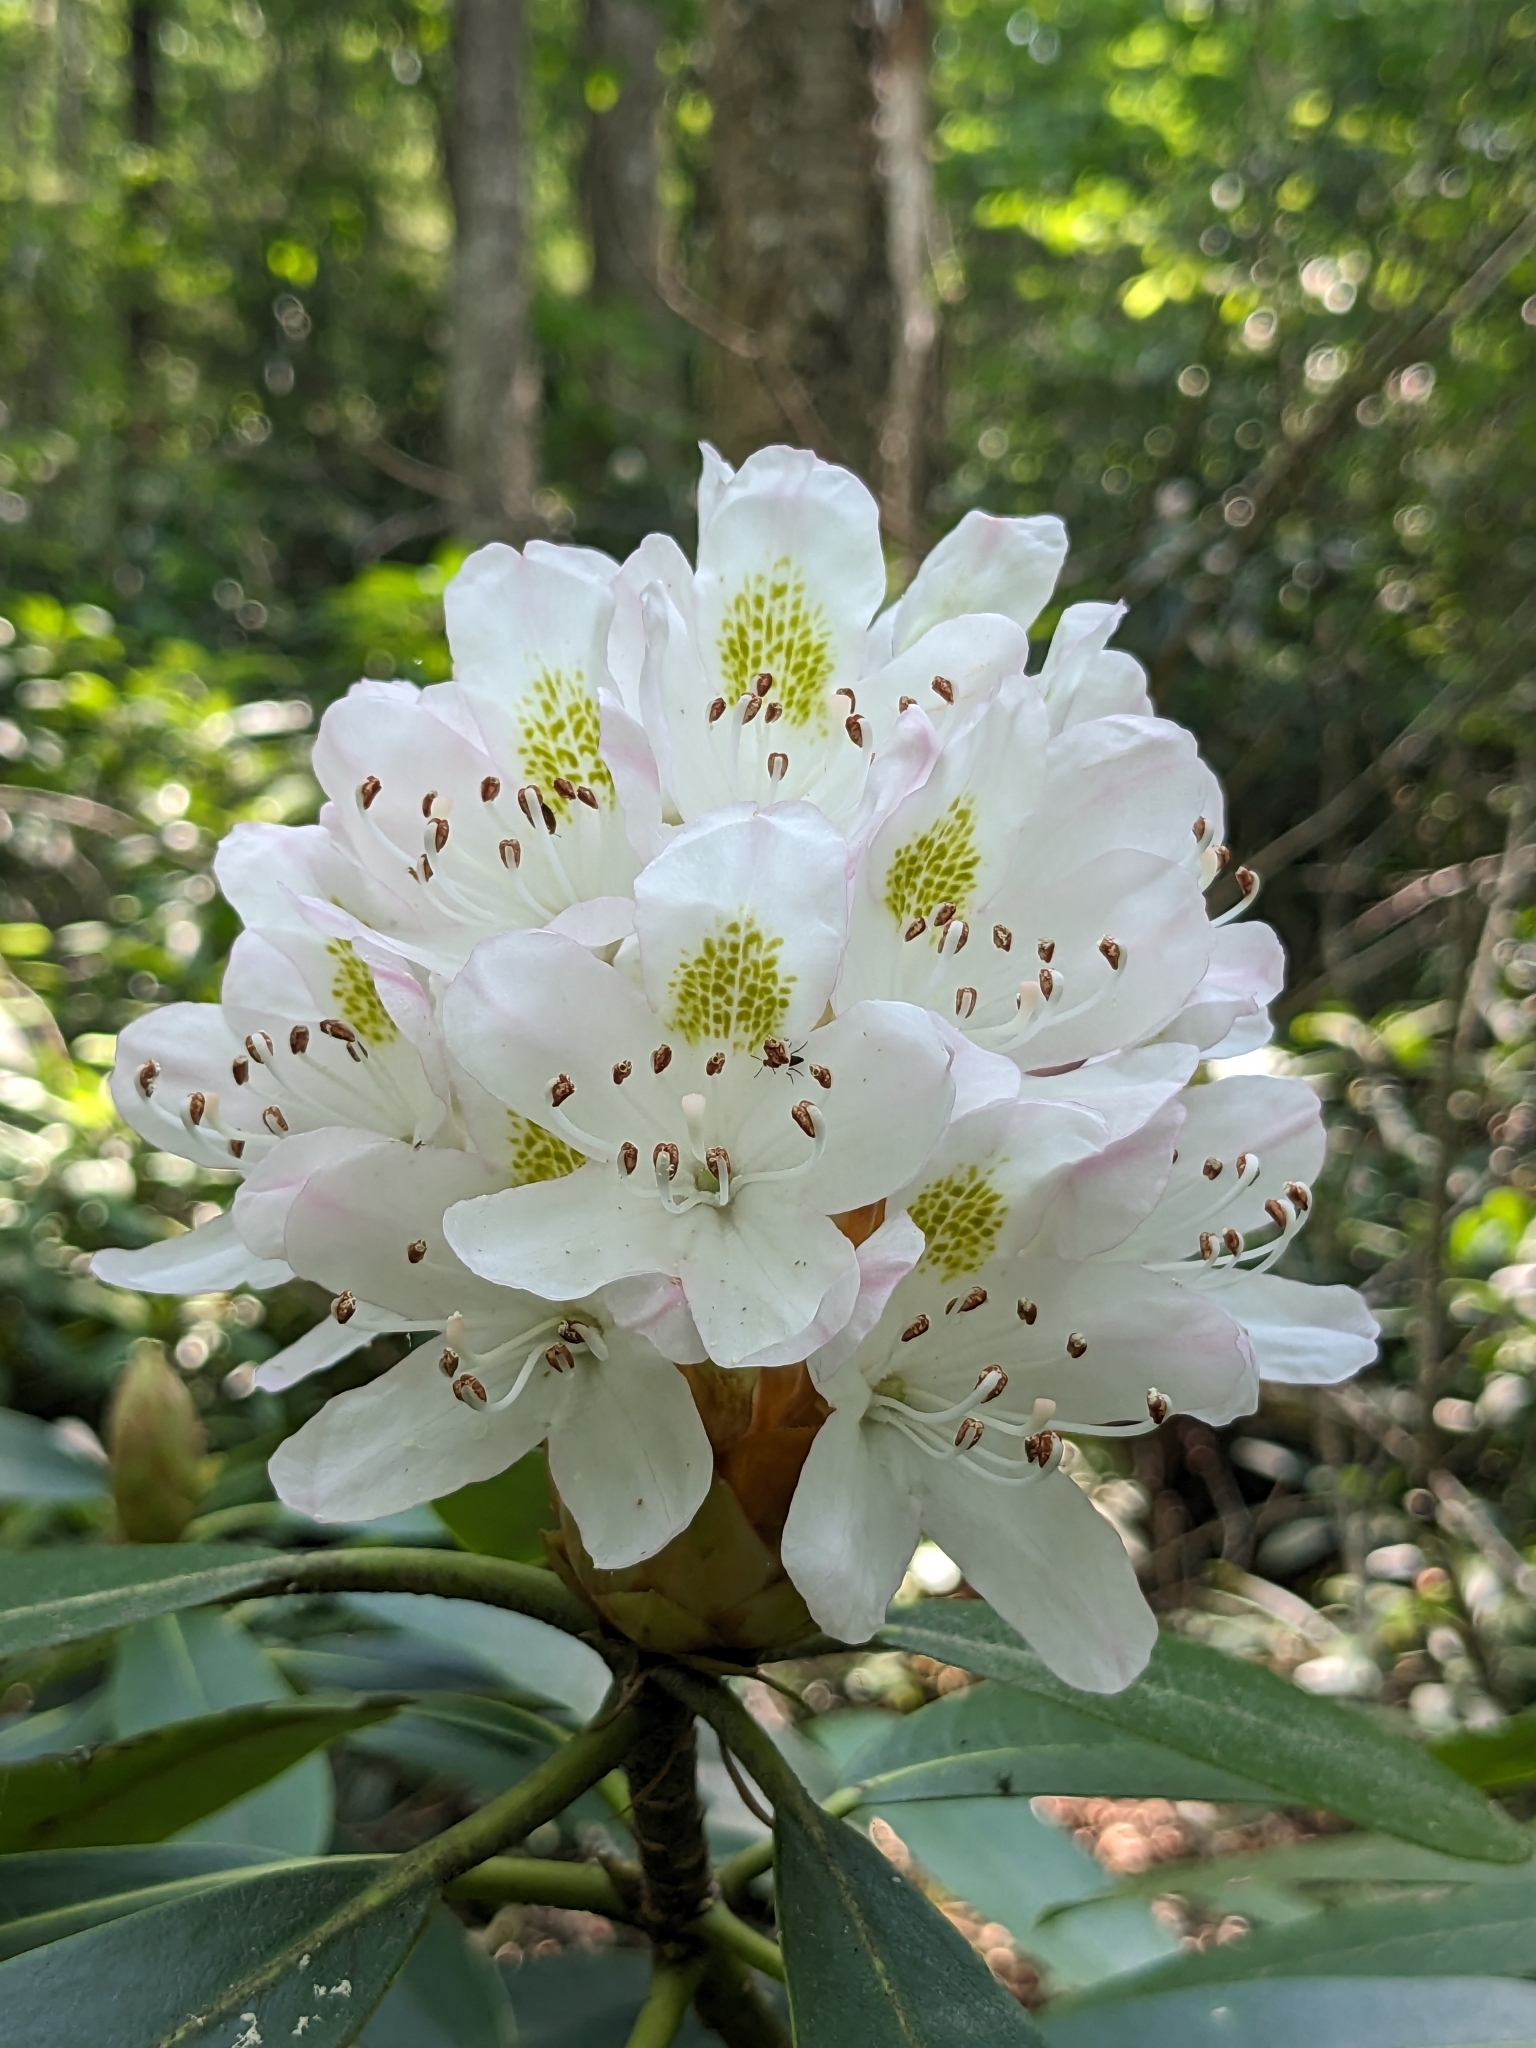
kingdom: Plantae
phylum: Tracheophyta
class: Magnoliopsida
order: Ericales
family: Ericaceae
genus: Rhododendron
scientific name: Rhododendron maximum
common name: Great rhododendron
